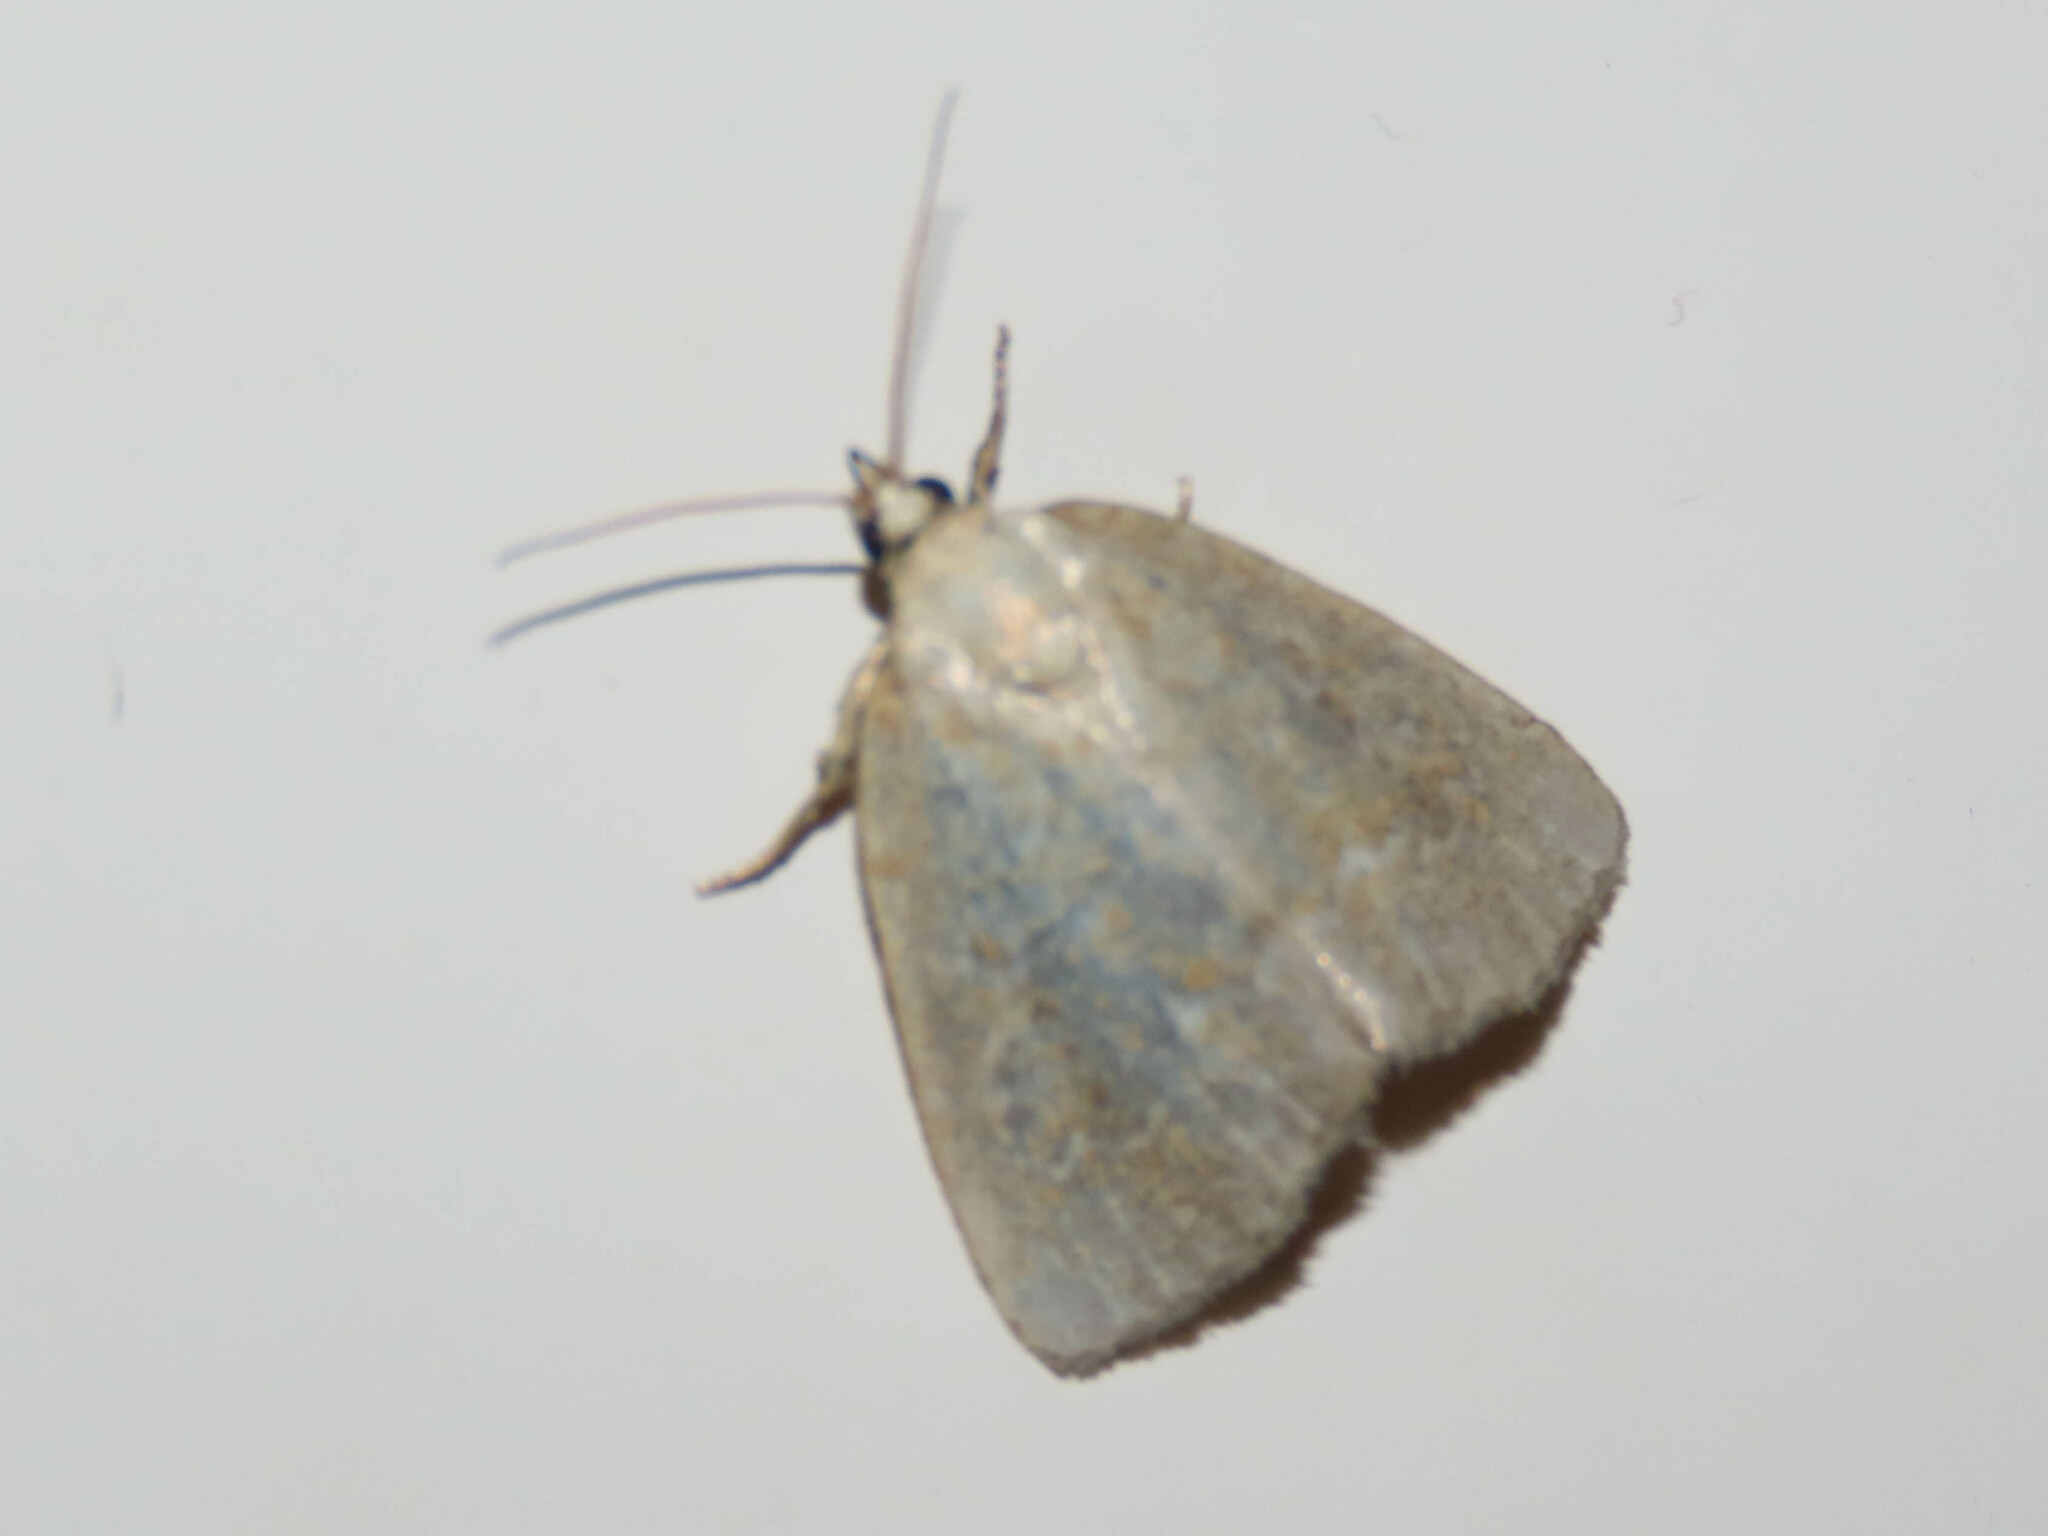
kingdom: Animalia
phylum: Arthropoda
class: Insecta
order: Lepidoptera
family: Noctuidae
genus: Protodeltote
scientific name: Protodeltote albidula
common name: Pale glyph
